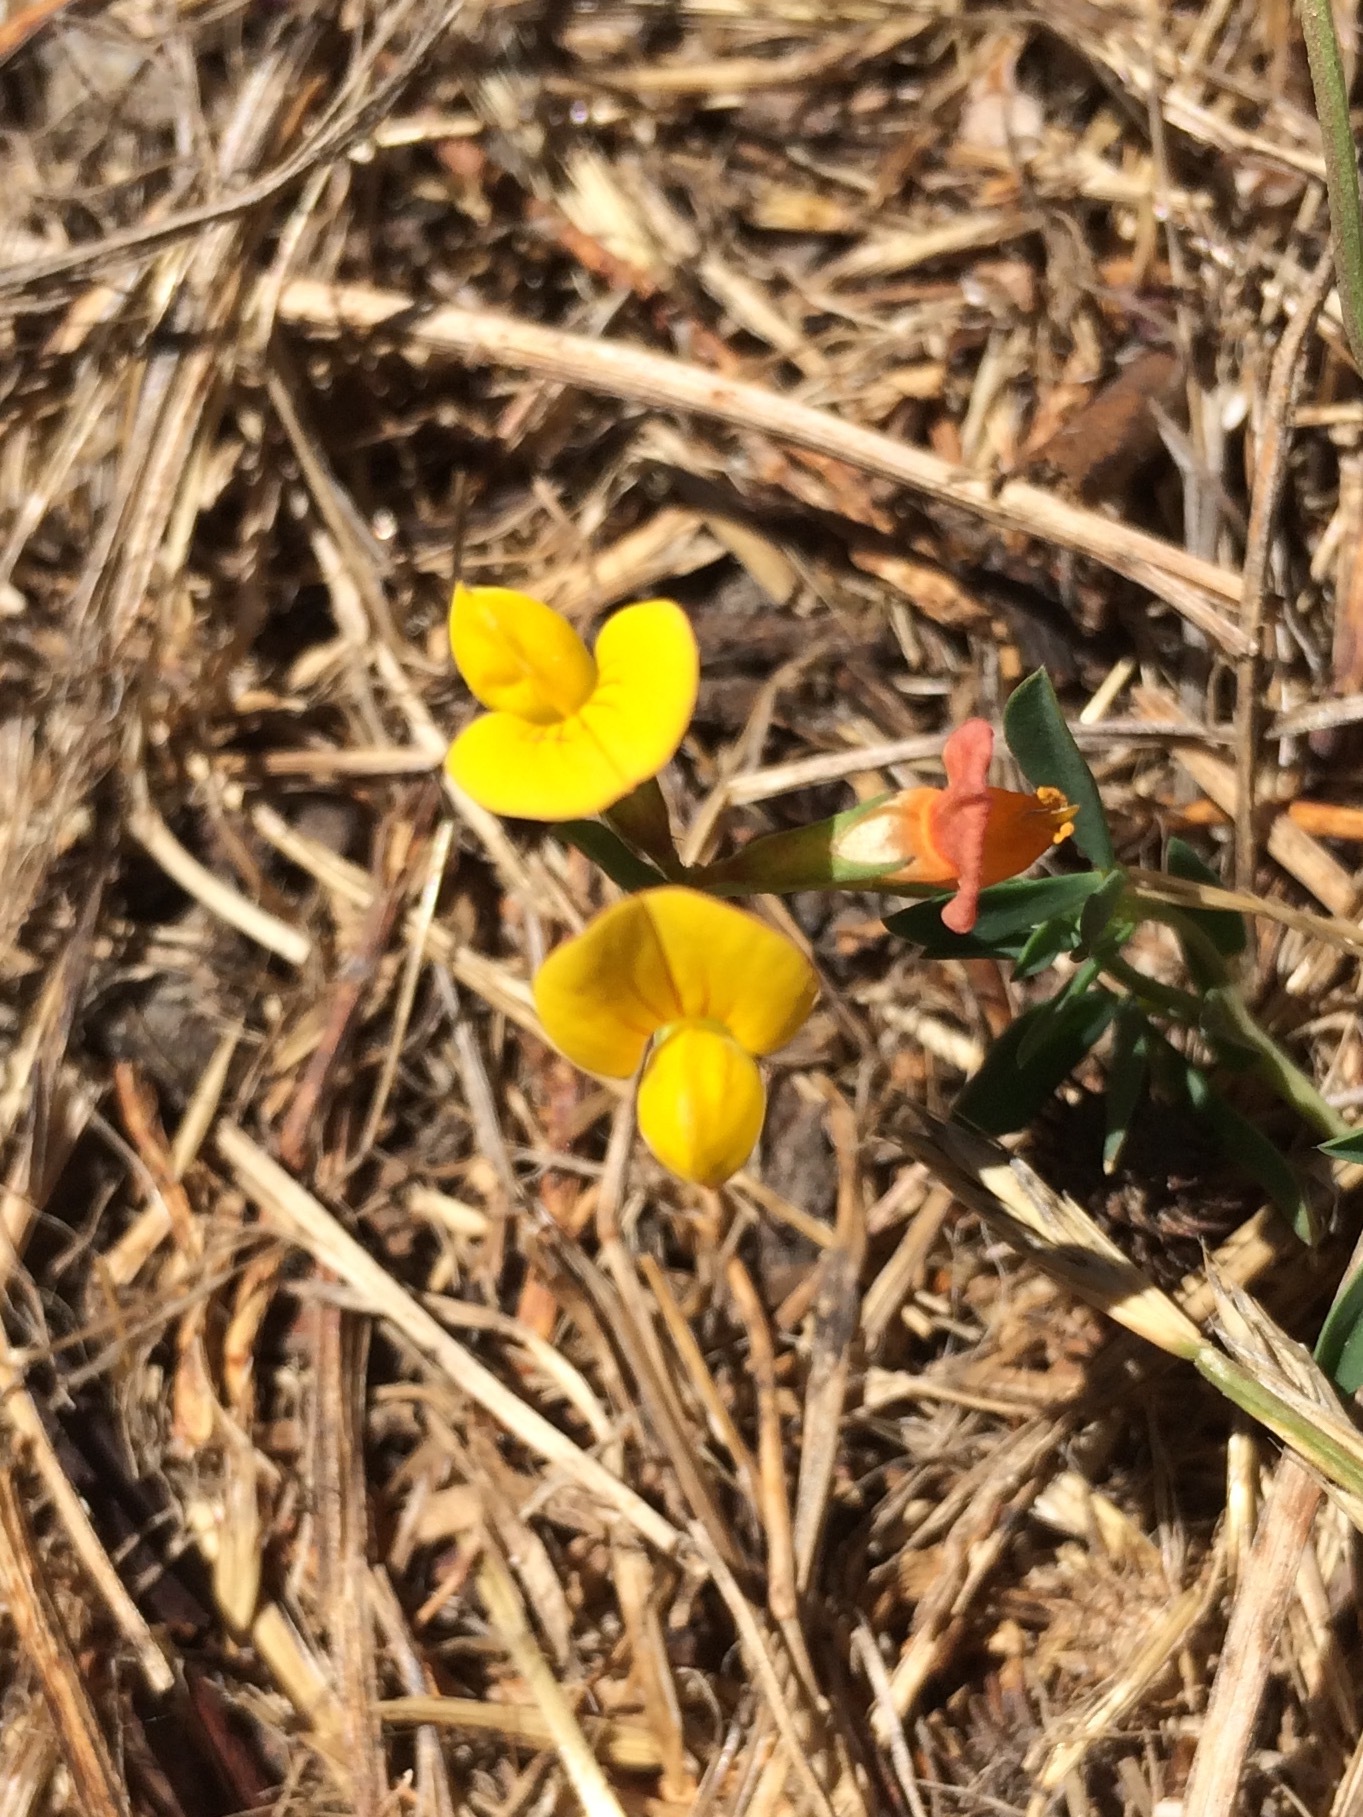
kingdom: Plantae
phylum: Tracheophyta
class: Magnoliopsida
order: Fabales
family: Fabaceae
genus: Lotus
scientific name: Lotus corniculatus
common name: Common bird's-foot-trefoil
